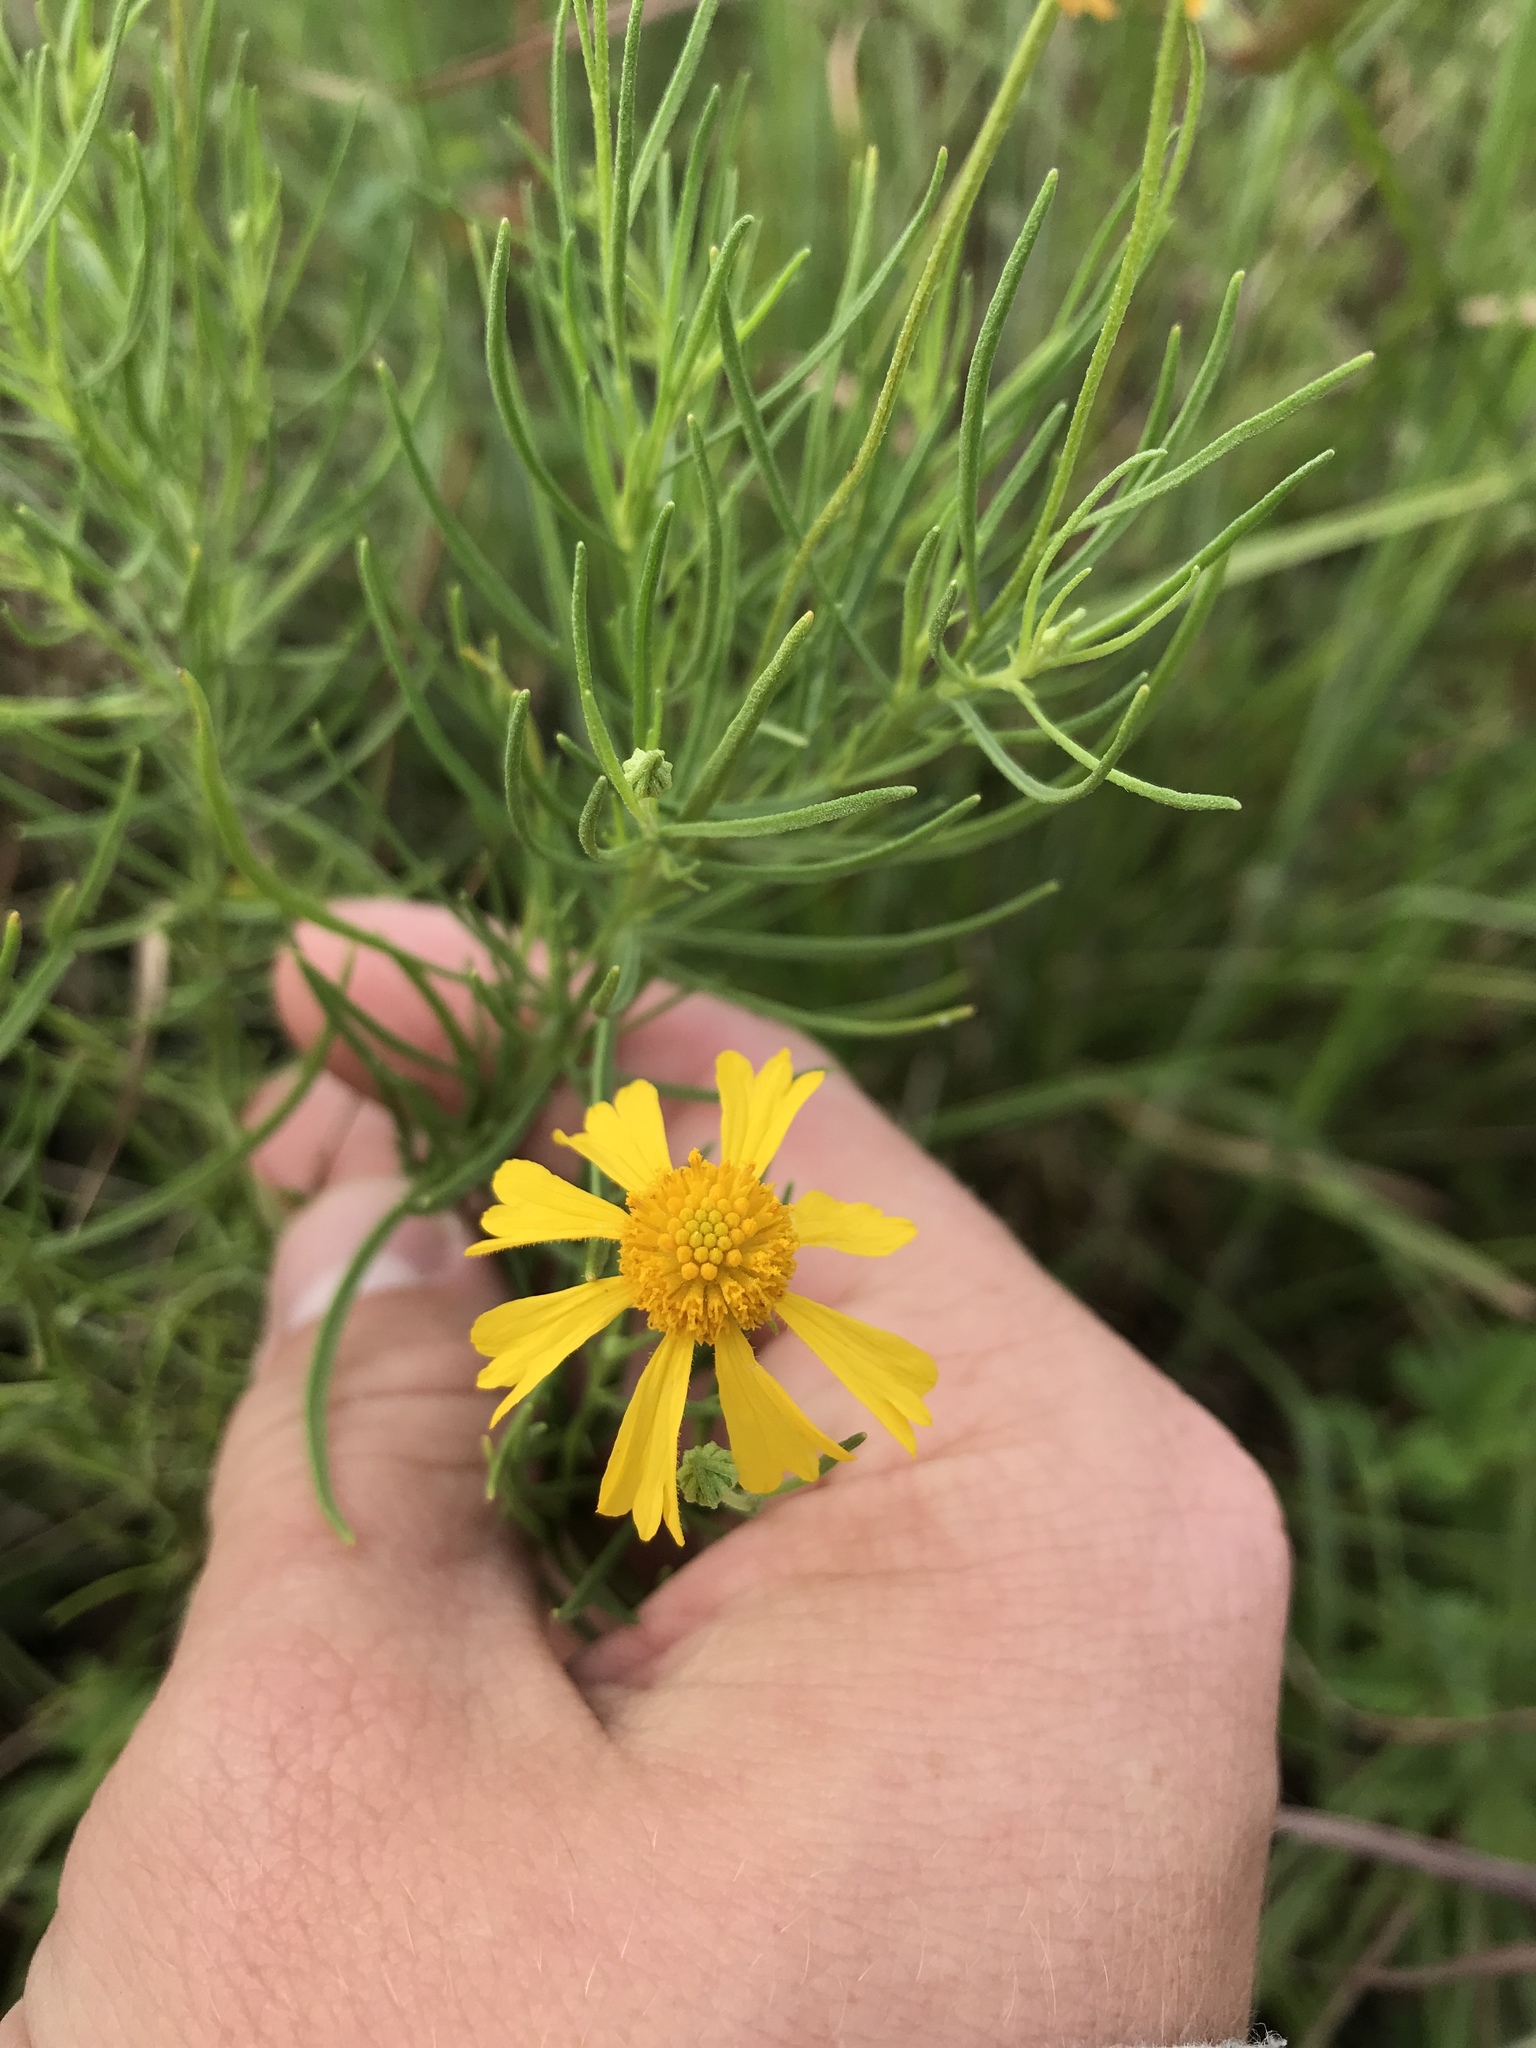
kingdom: Plantae
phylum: Tracheophyta
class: Magnoliopsida
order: Asterales
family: Asteraceae
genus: Helenium
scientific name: Helenium amarum
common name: Bitter sneezeweed
